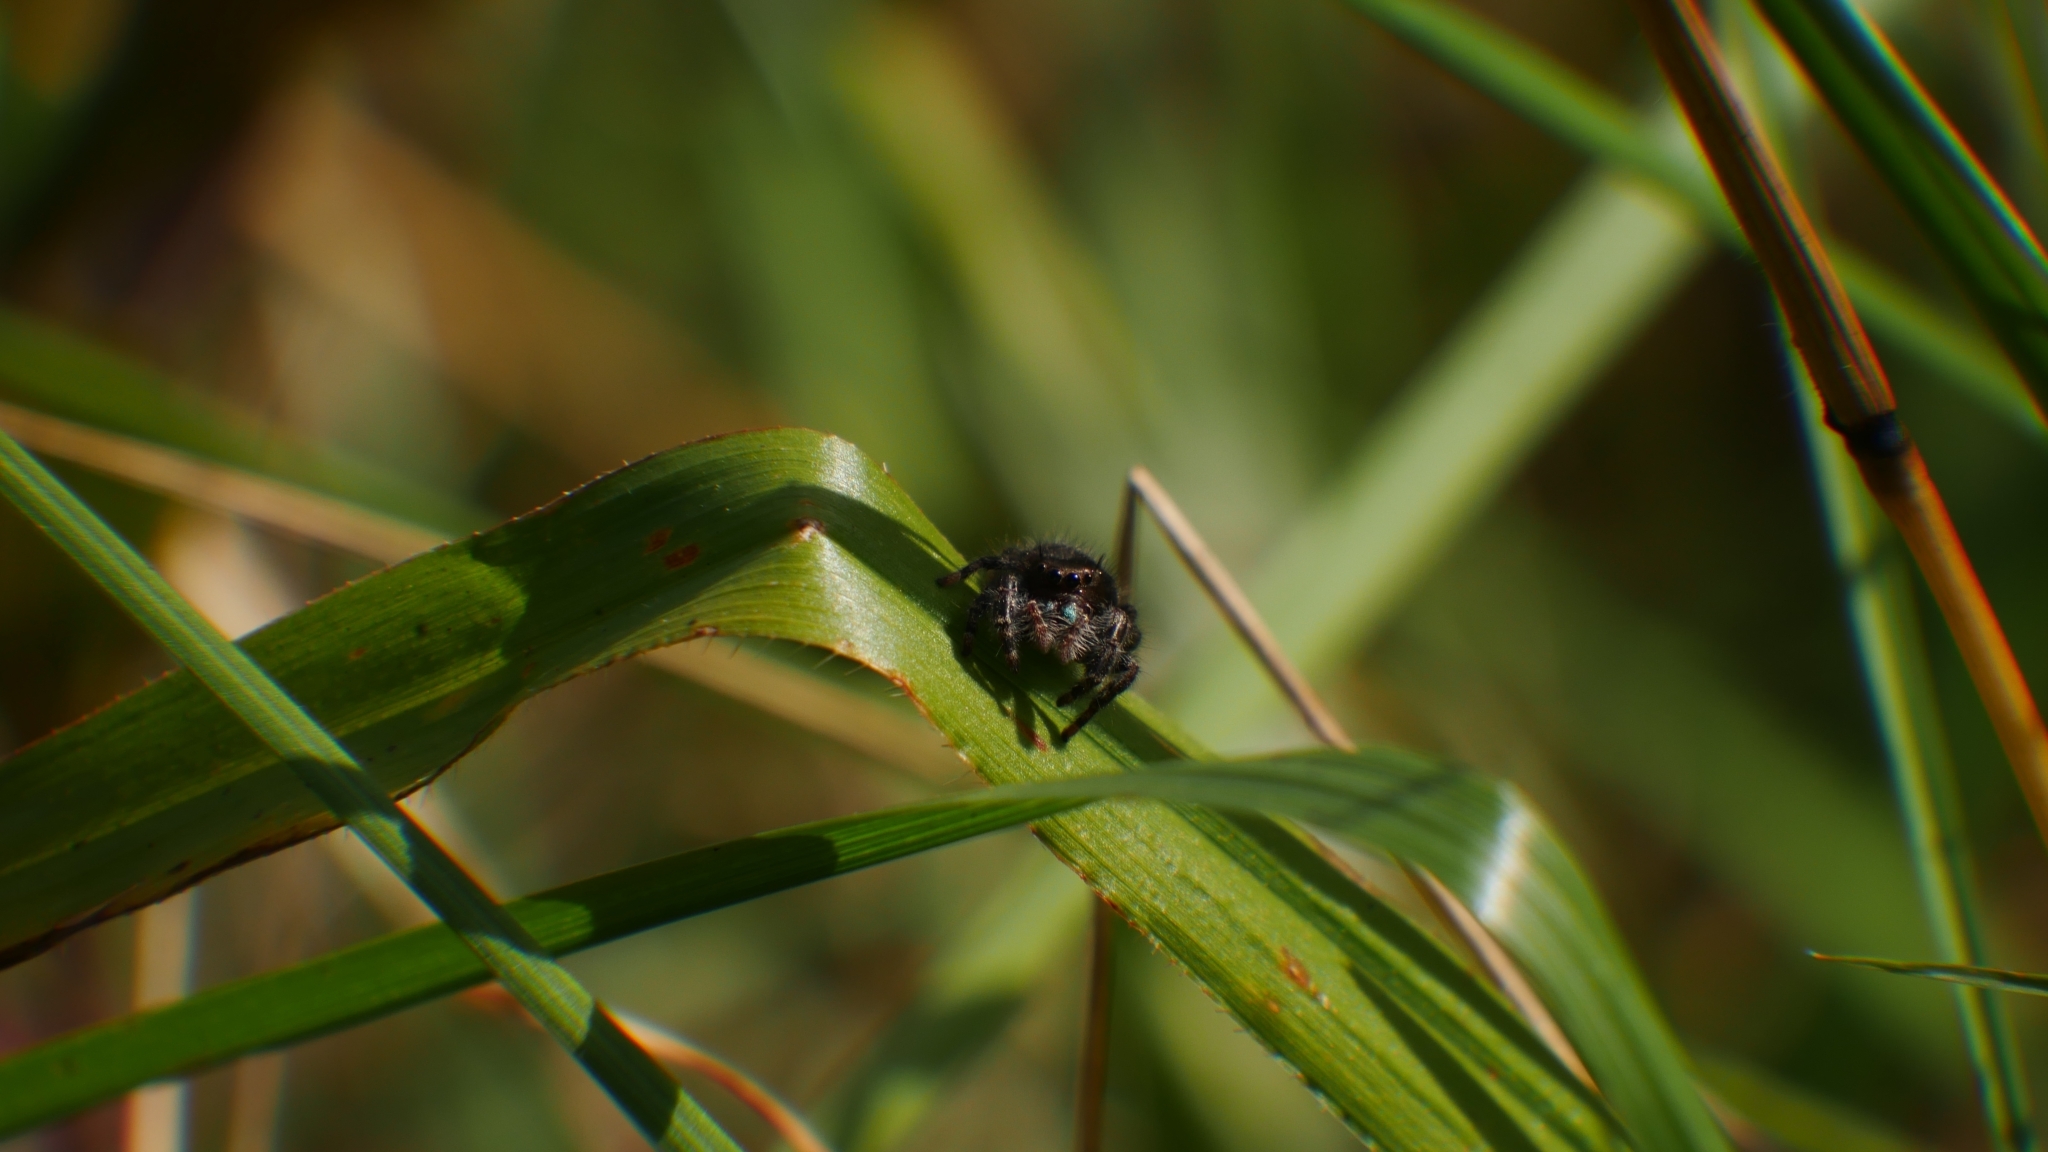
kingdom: Animalia
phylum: Arthropoda
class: Arachnida
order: Araneae
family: Salticidae
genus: Phidippus
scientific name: Phidippus audax
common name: Bold jumper
